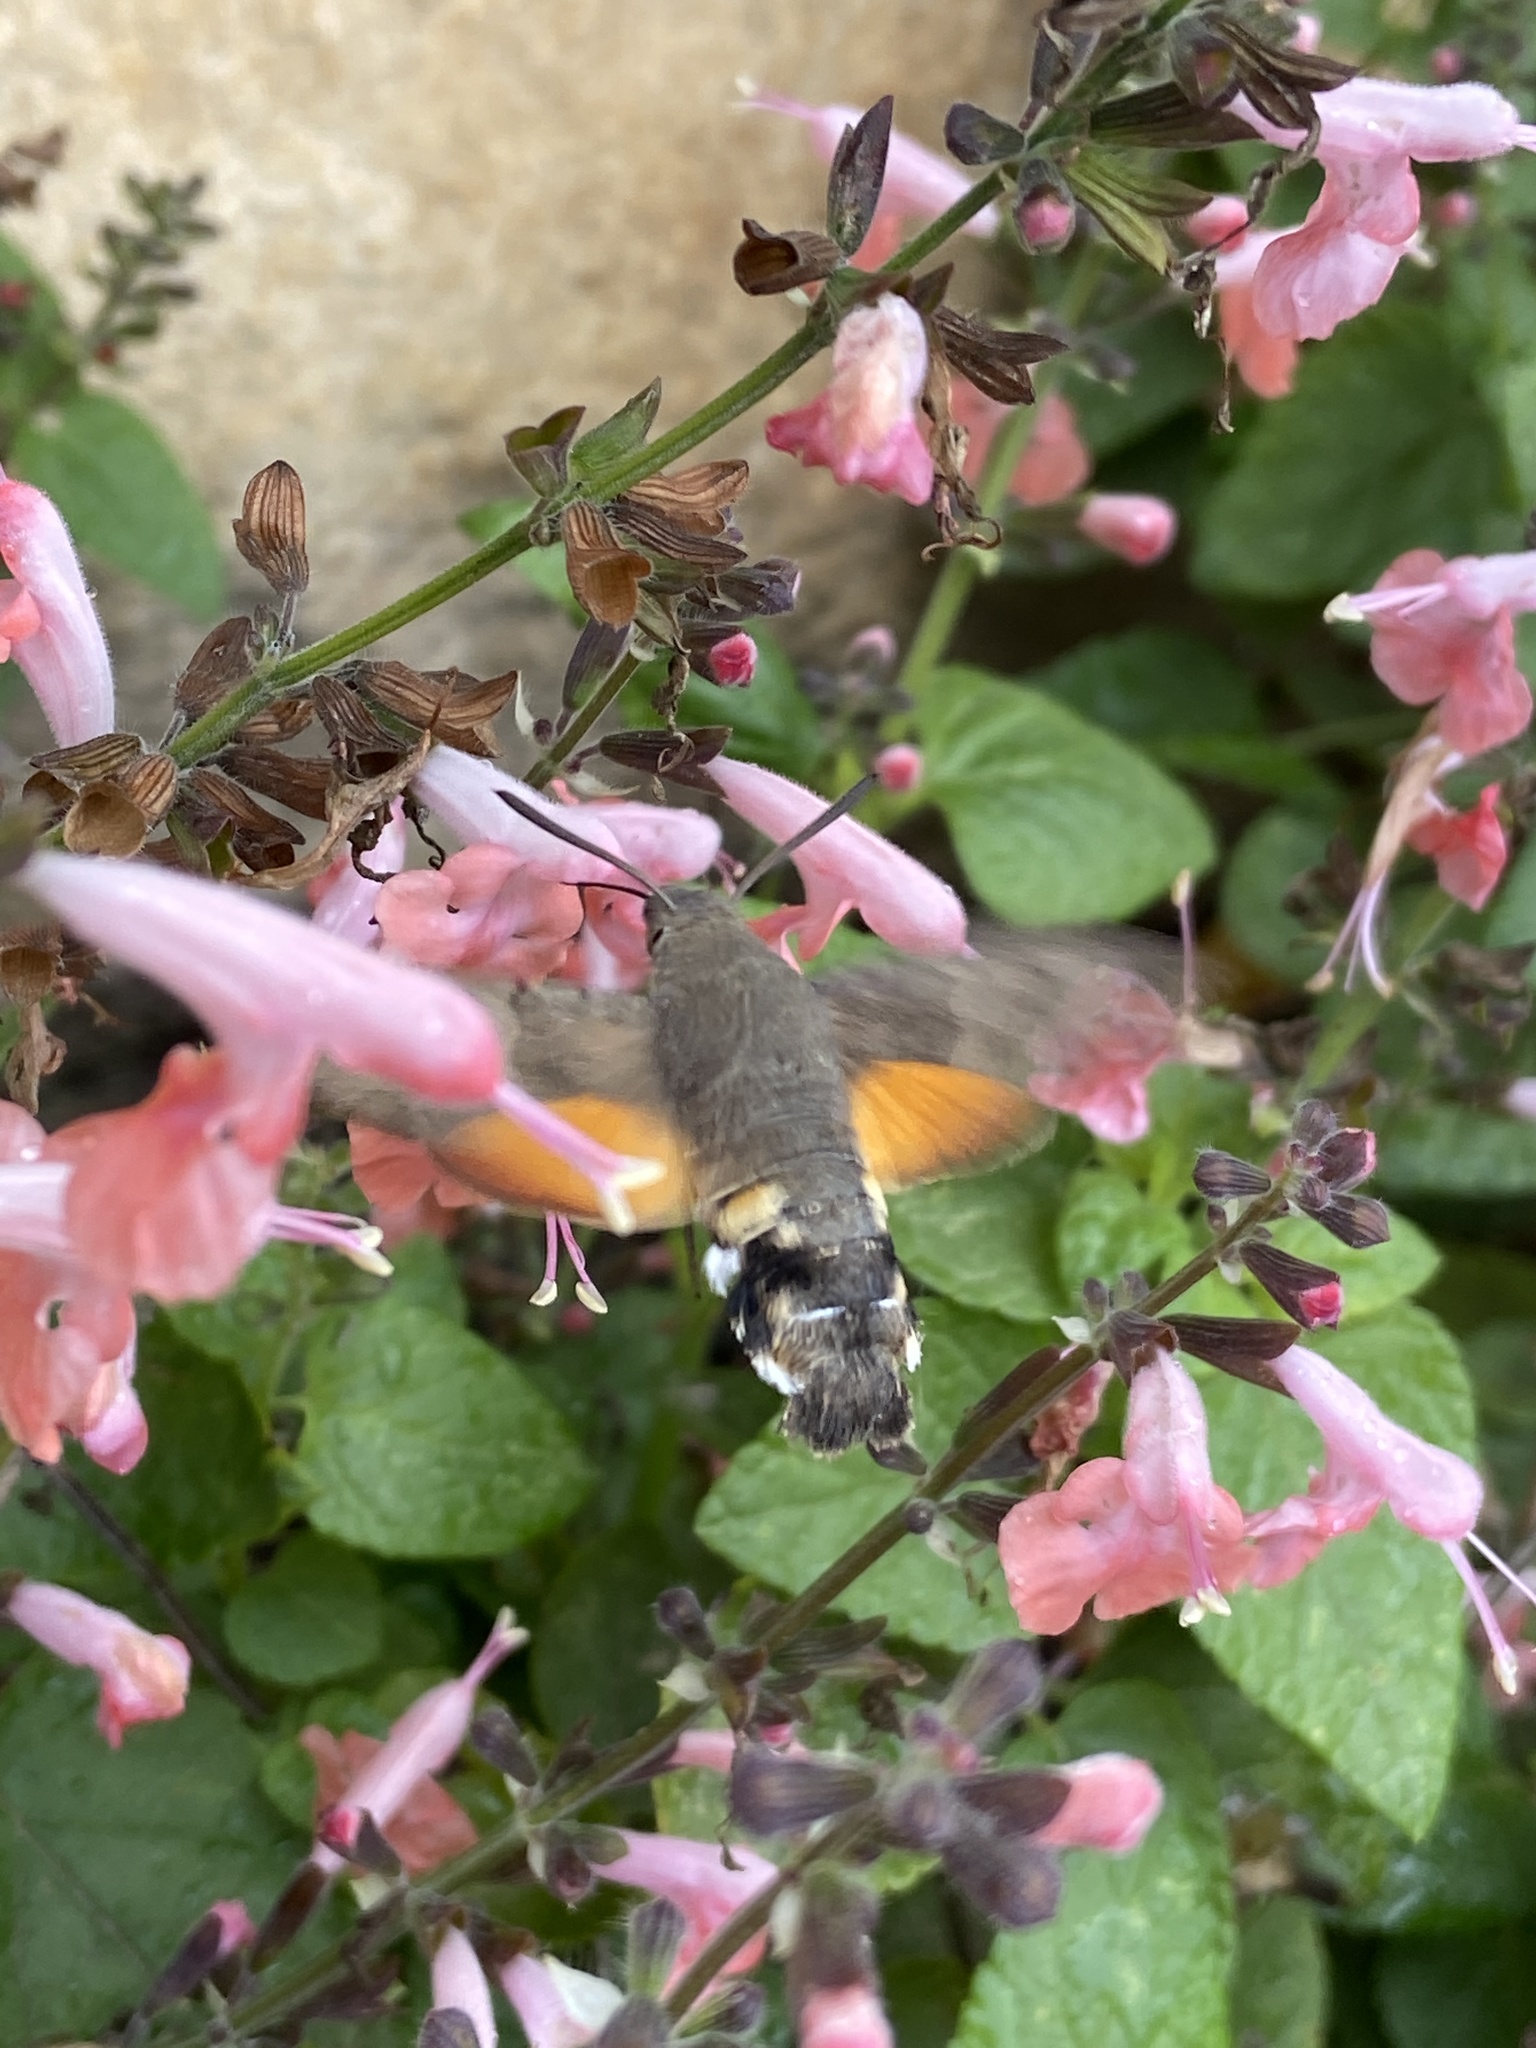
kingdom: Animalia
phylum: Arthropoda
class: Insecta
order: Lepidoptera
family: Sphingidae
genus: Macroglossum
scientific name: Macroglossum stellatarum
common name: Humming-bird hawk-moth
